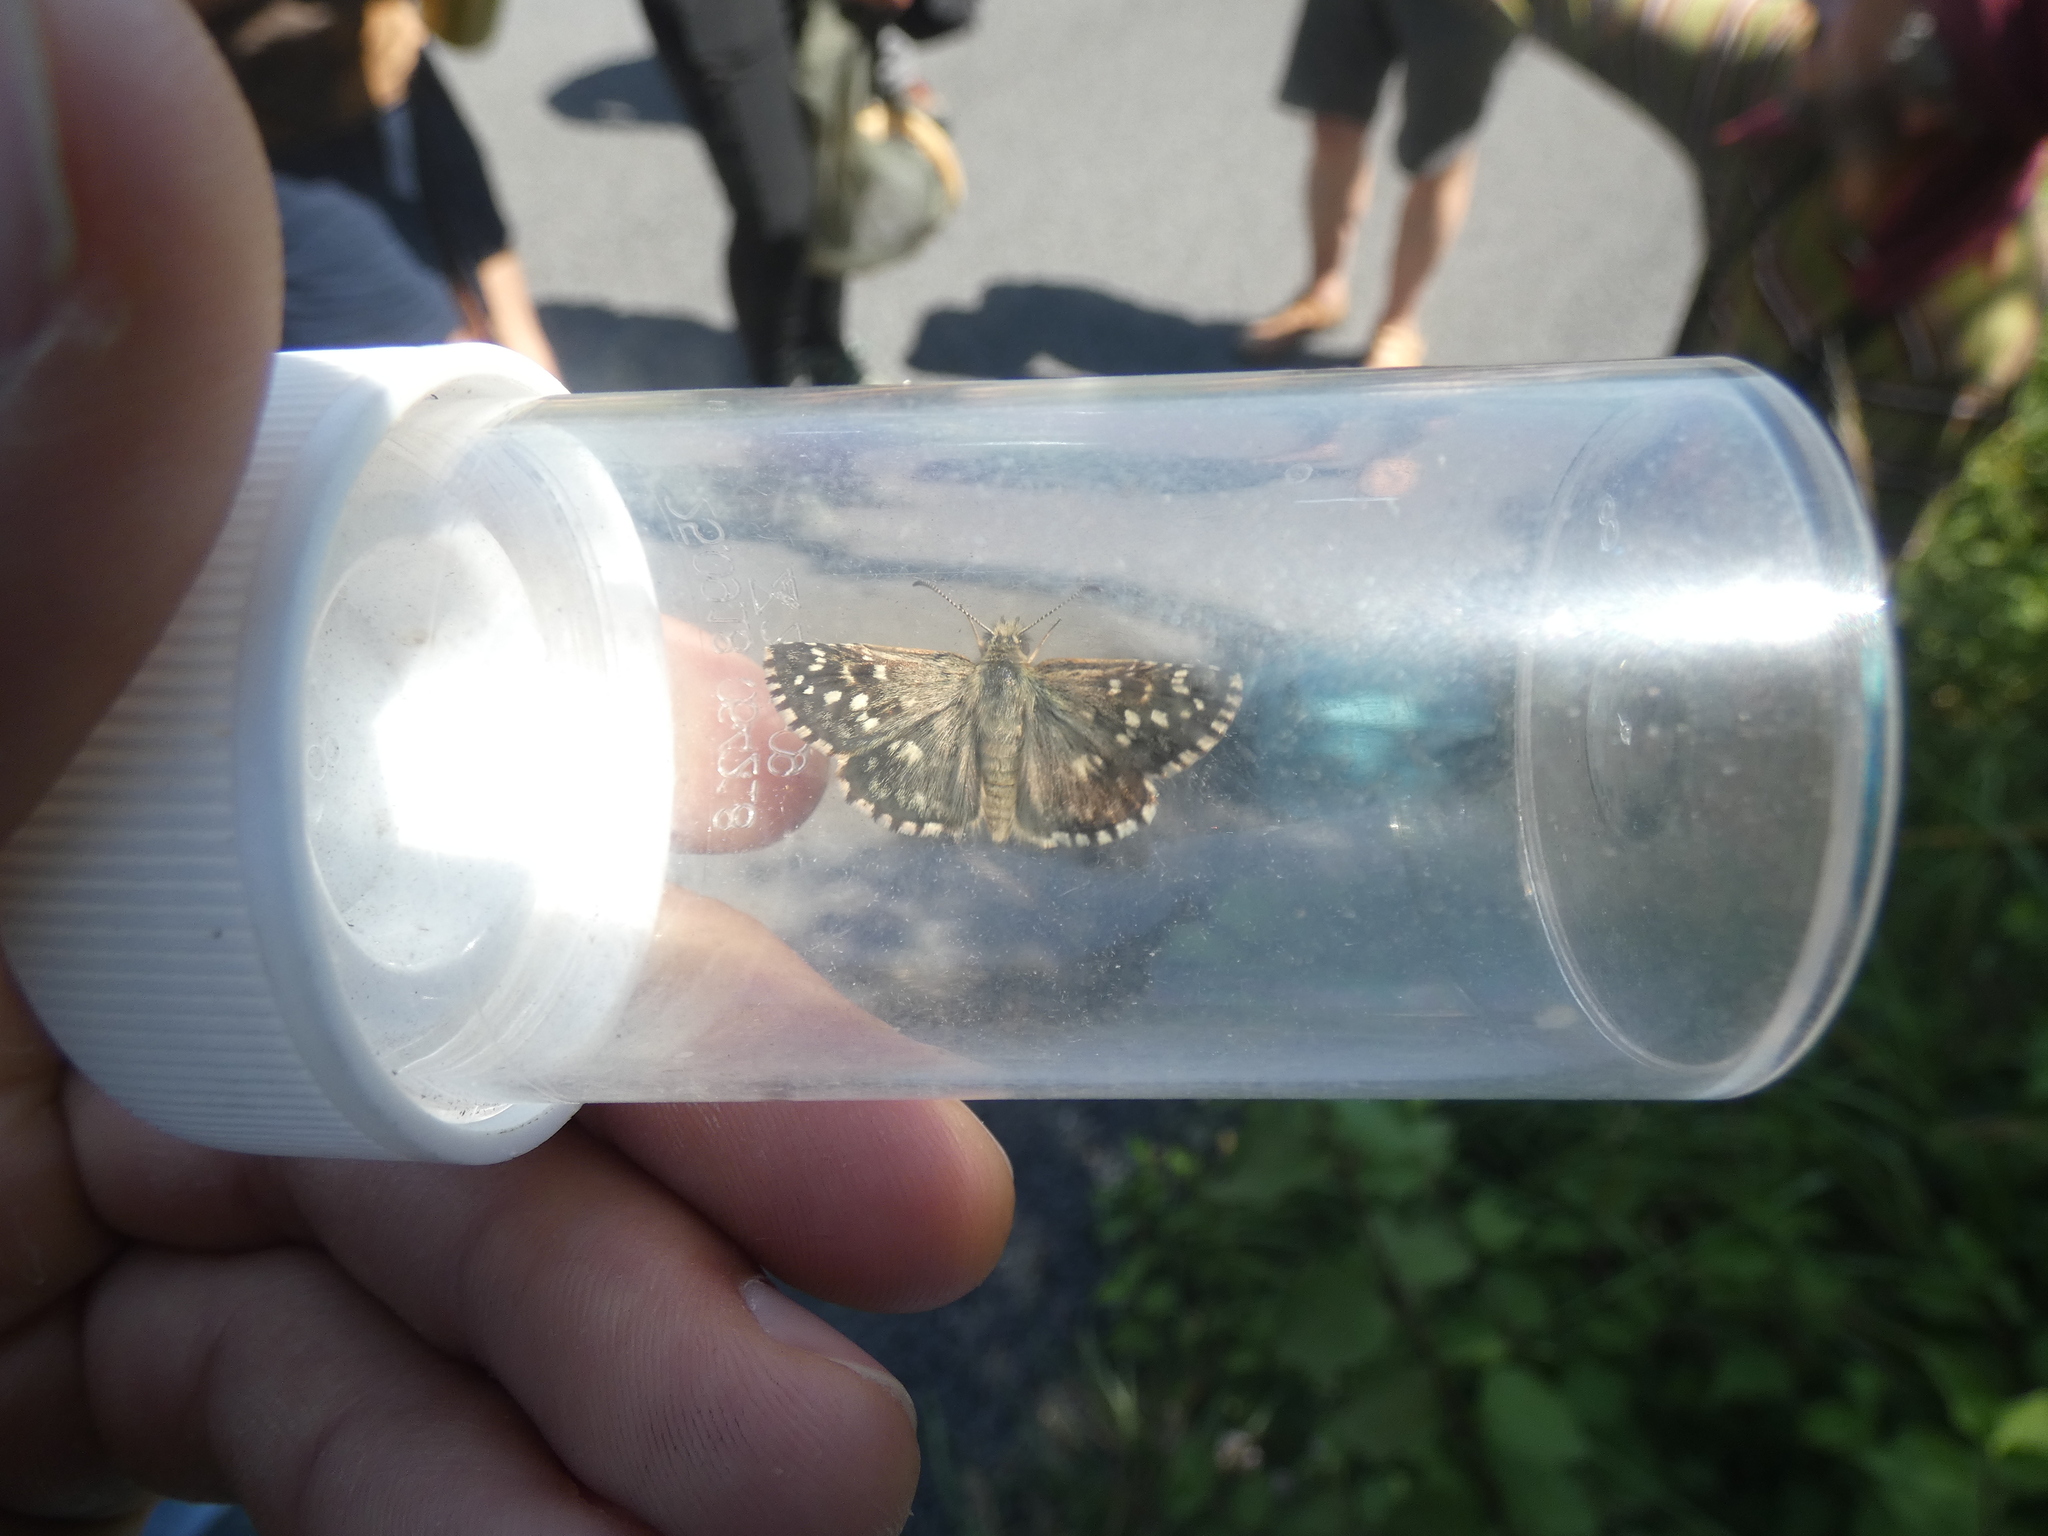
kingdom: Animalia
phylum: Arthropoda
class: Insecta
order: Lepidoptera
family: Hesperiidae
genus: Pyrgus
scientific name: Pyrgus malvoides
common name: Southern grizzled skipper
